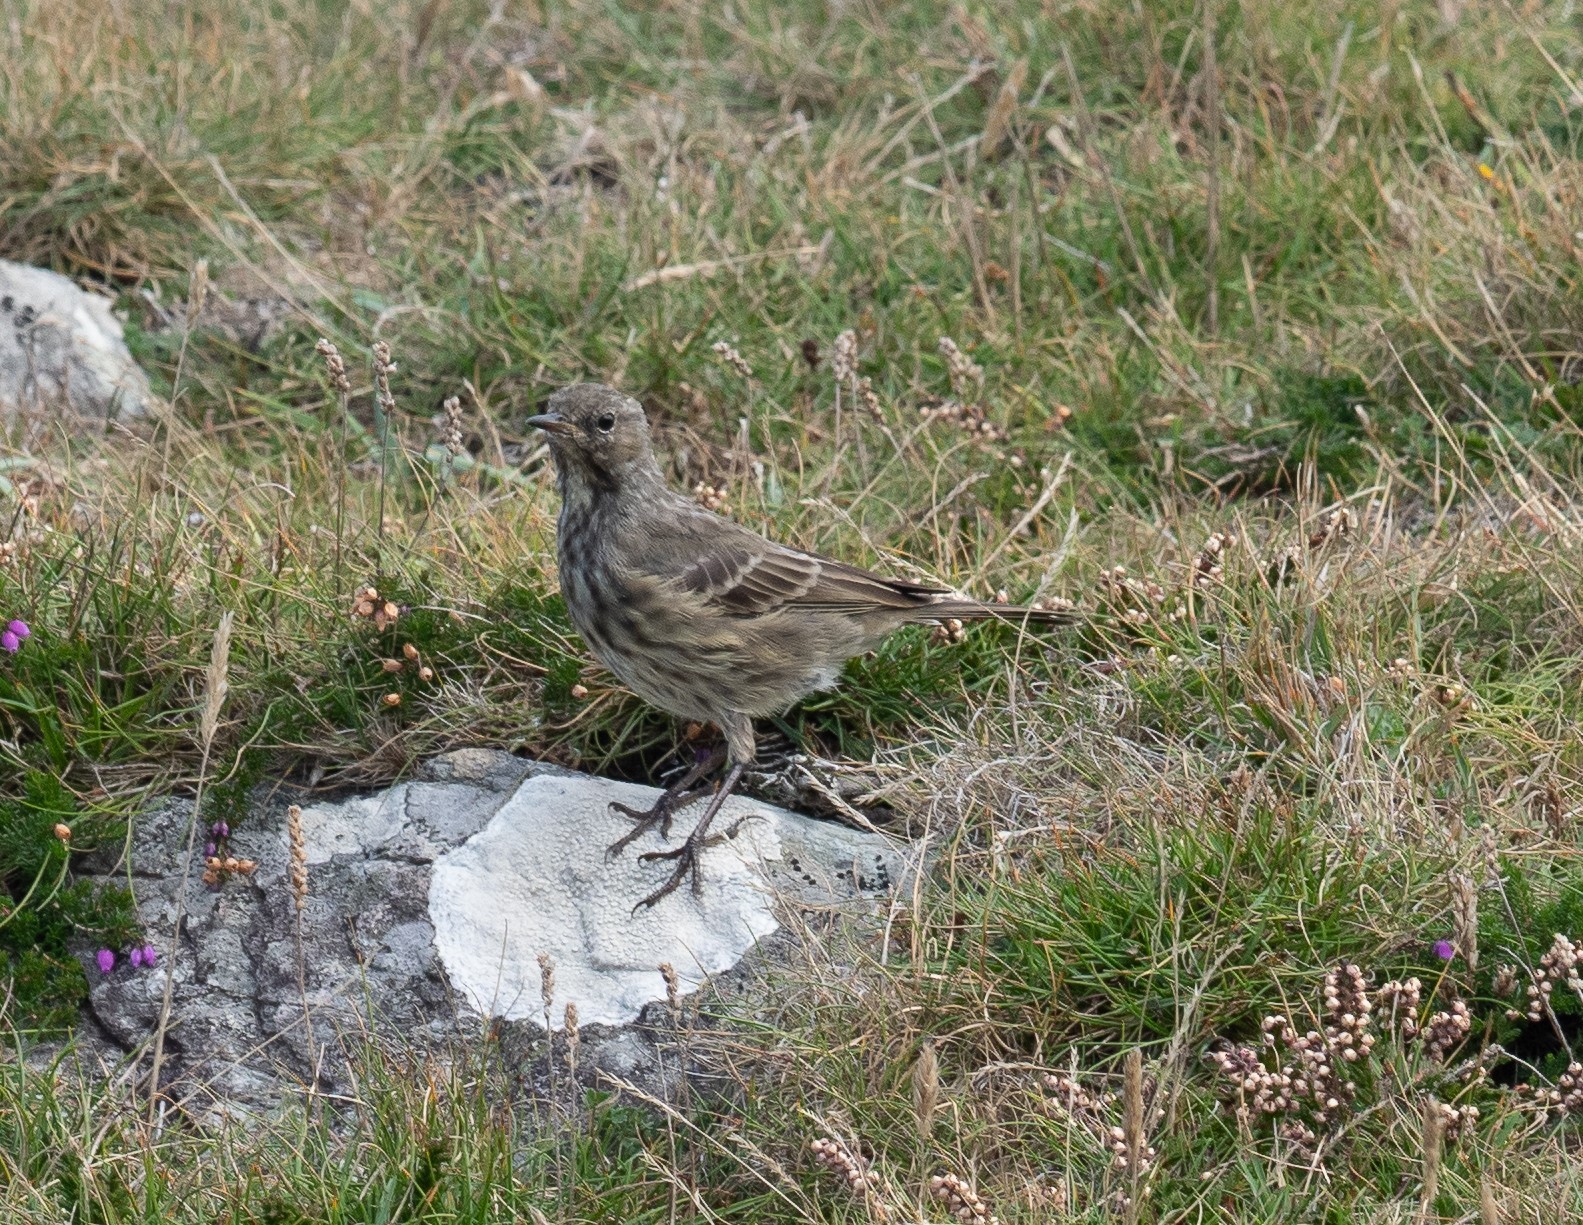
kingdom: Animalia
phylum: Chordata
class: Aves
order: Passeriformes
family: Motacillidae
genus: Anthus
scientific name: Anthus petrosus
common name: Eurasian rock pipit
